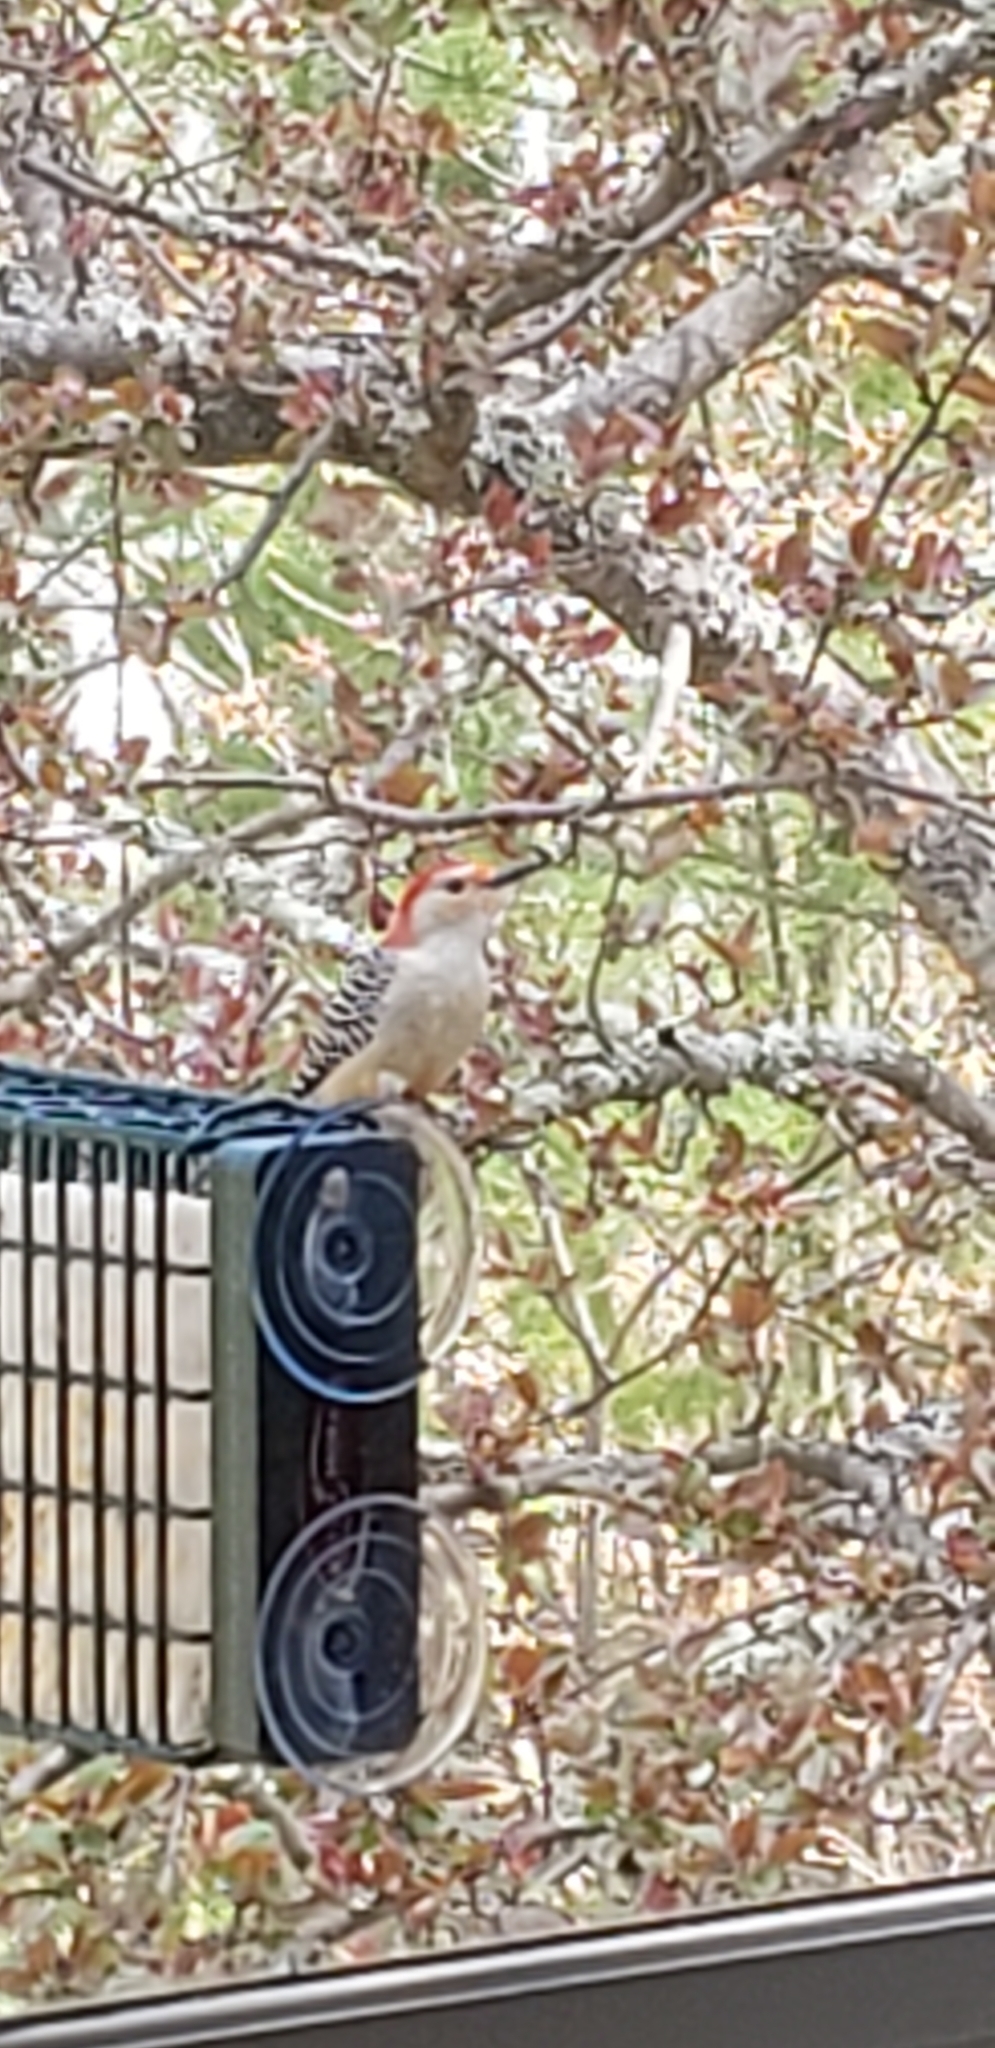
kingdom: Animalia
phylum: Chordata
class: Aves
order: Piciformes
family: Picidae
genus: Melanerpes
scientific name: Melanerpes carolinus
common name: Red-bellied woodpecker
